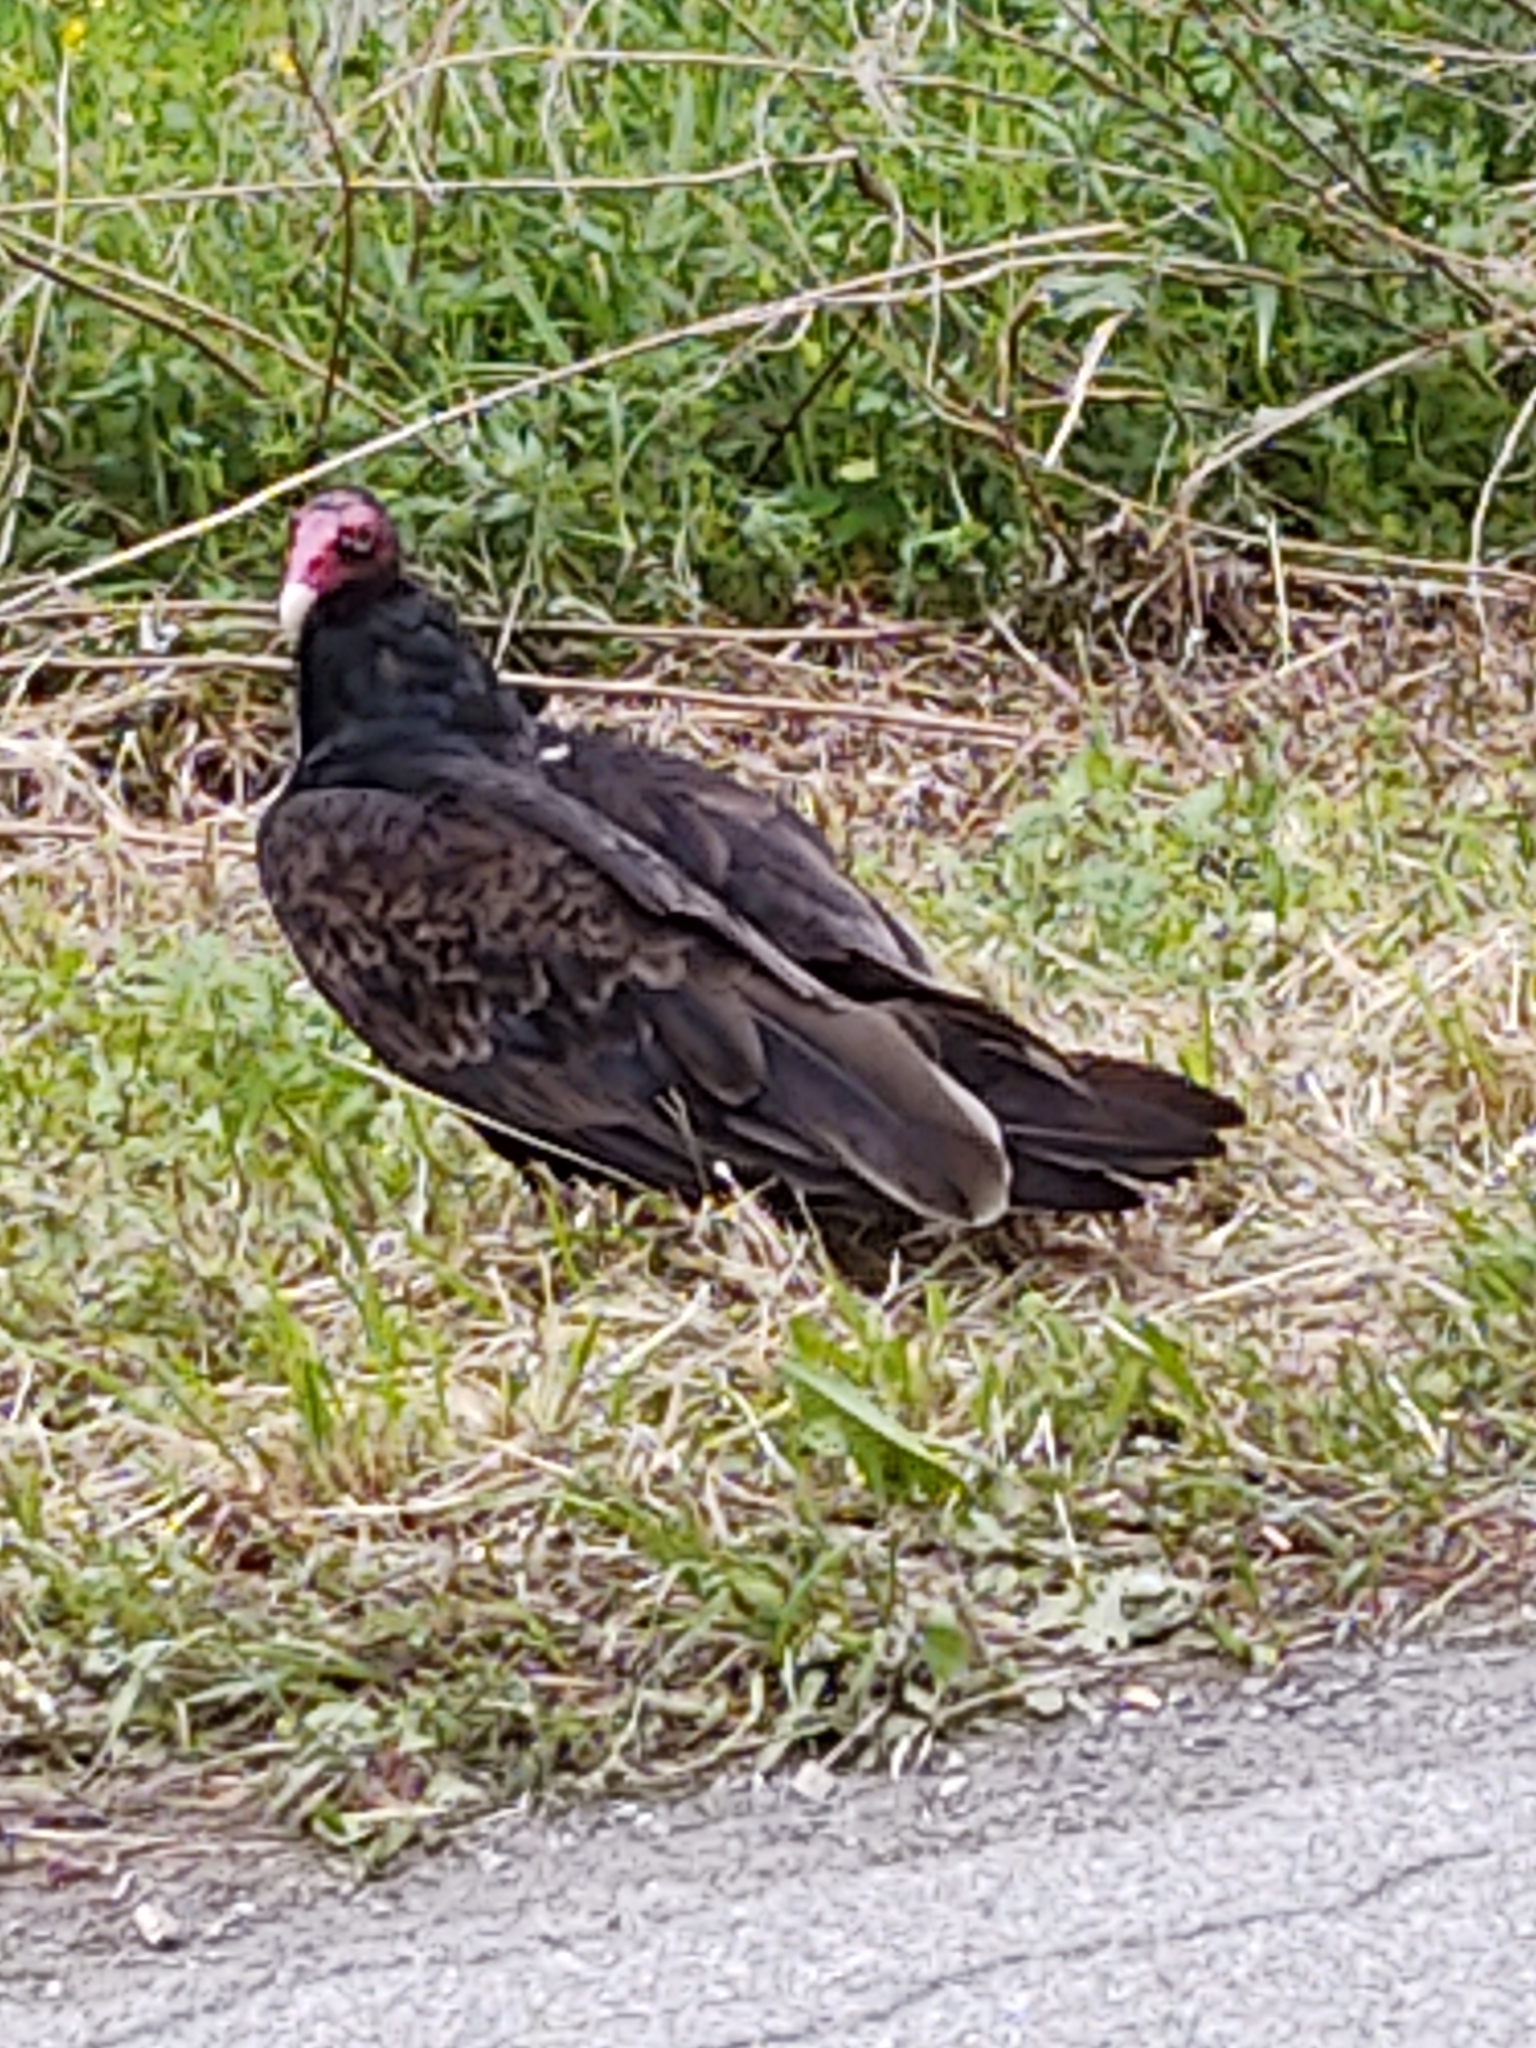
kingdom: Animalia
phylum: Chordata
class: Aves
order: Accipitriformes
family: Cathartidae
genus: Cathartes
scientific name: Cathartes aura
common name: Turkey vulture
